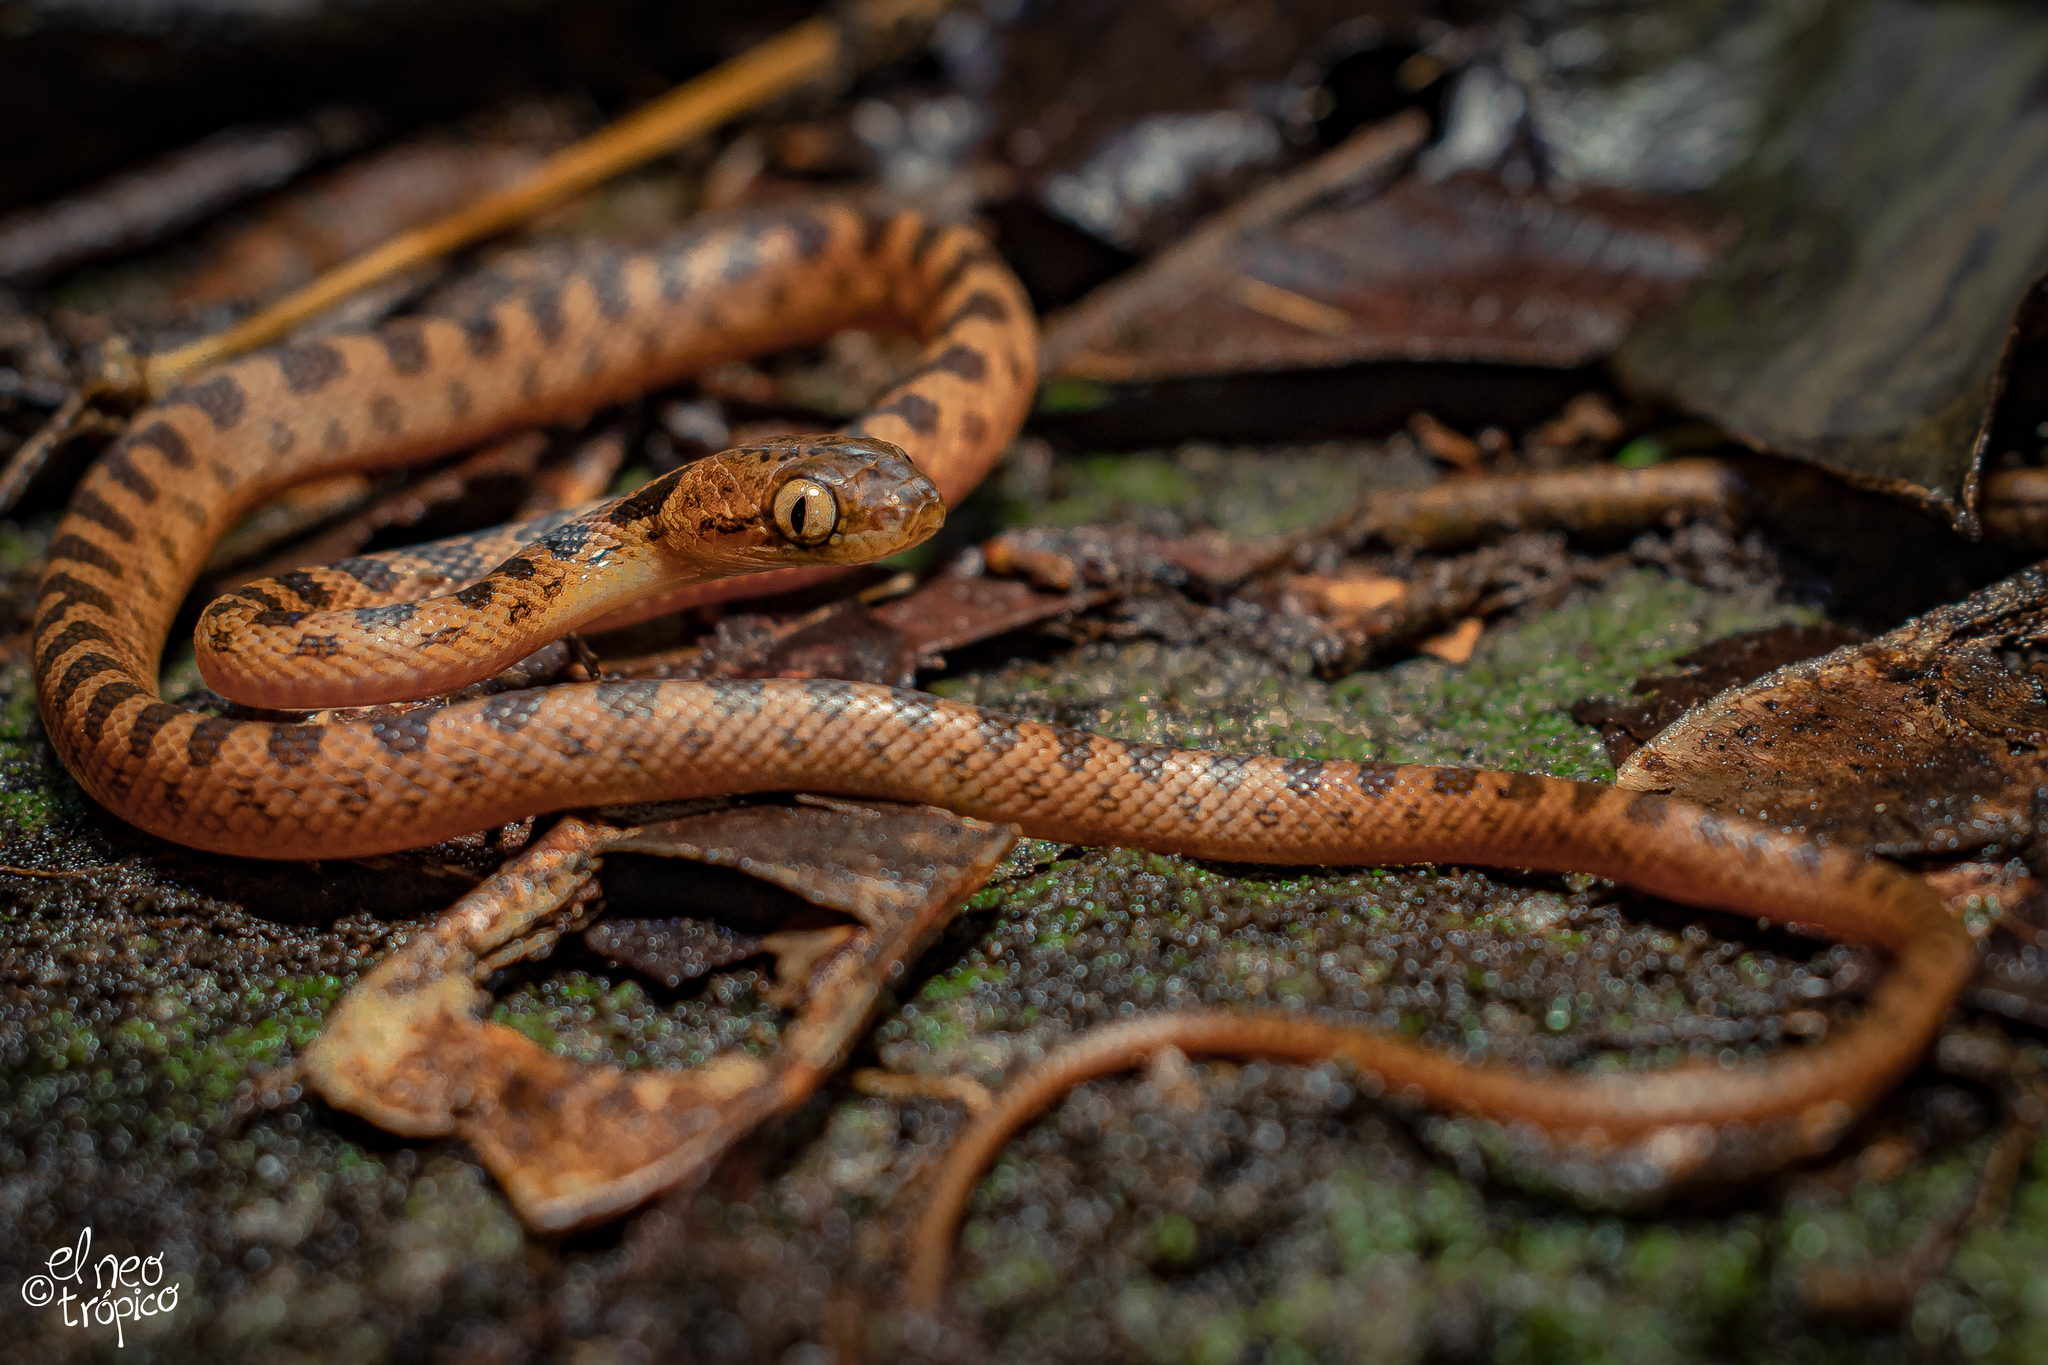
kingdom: Animalia
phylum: Chordata
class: Squamata
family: Colubridae
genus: Leptodeira
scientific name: Leptodeira septentrionalis
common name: Northern cat-eyed snake
